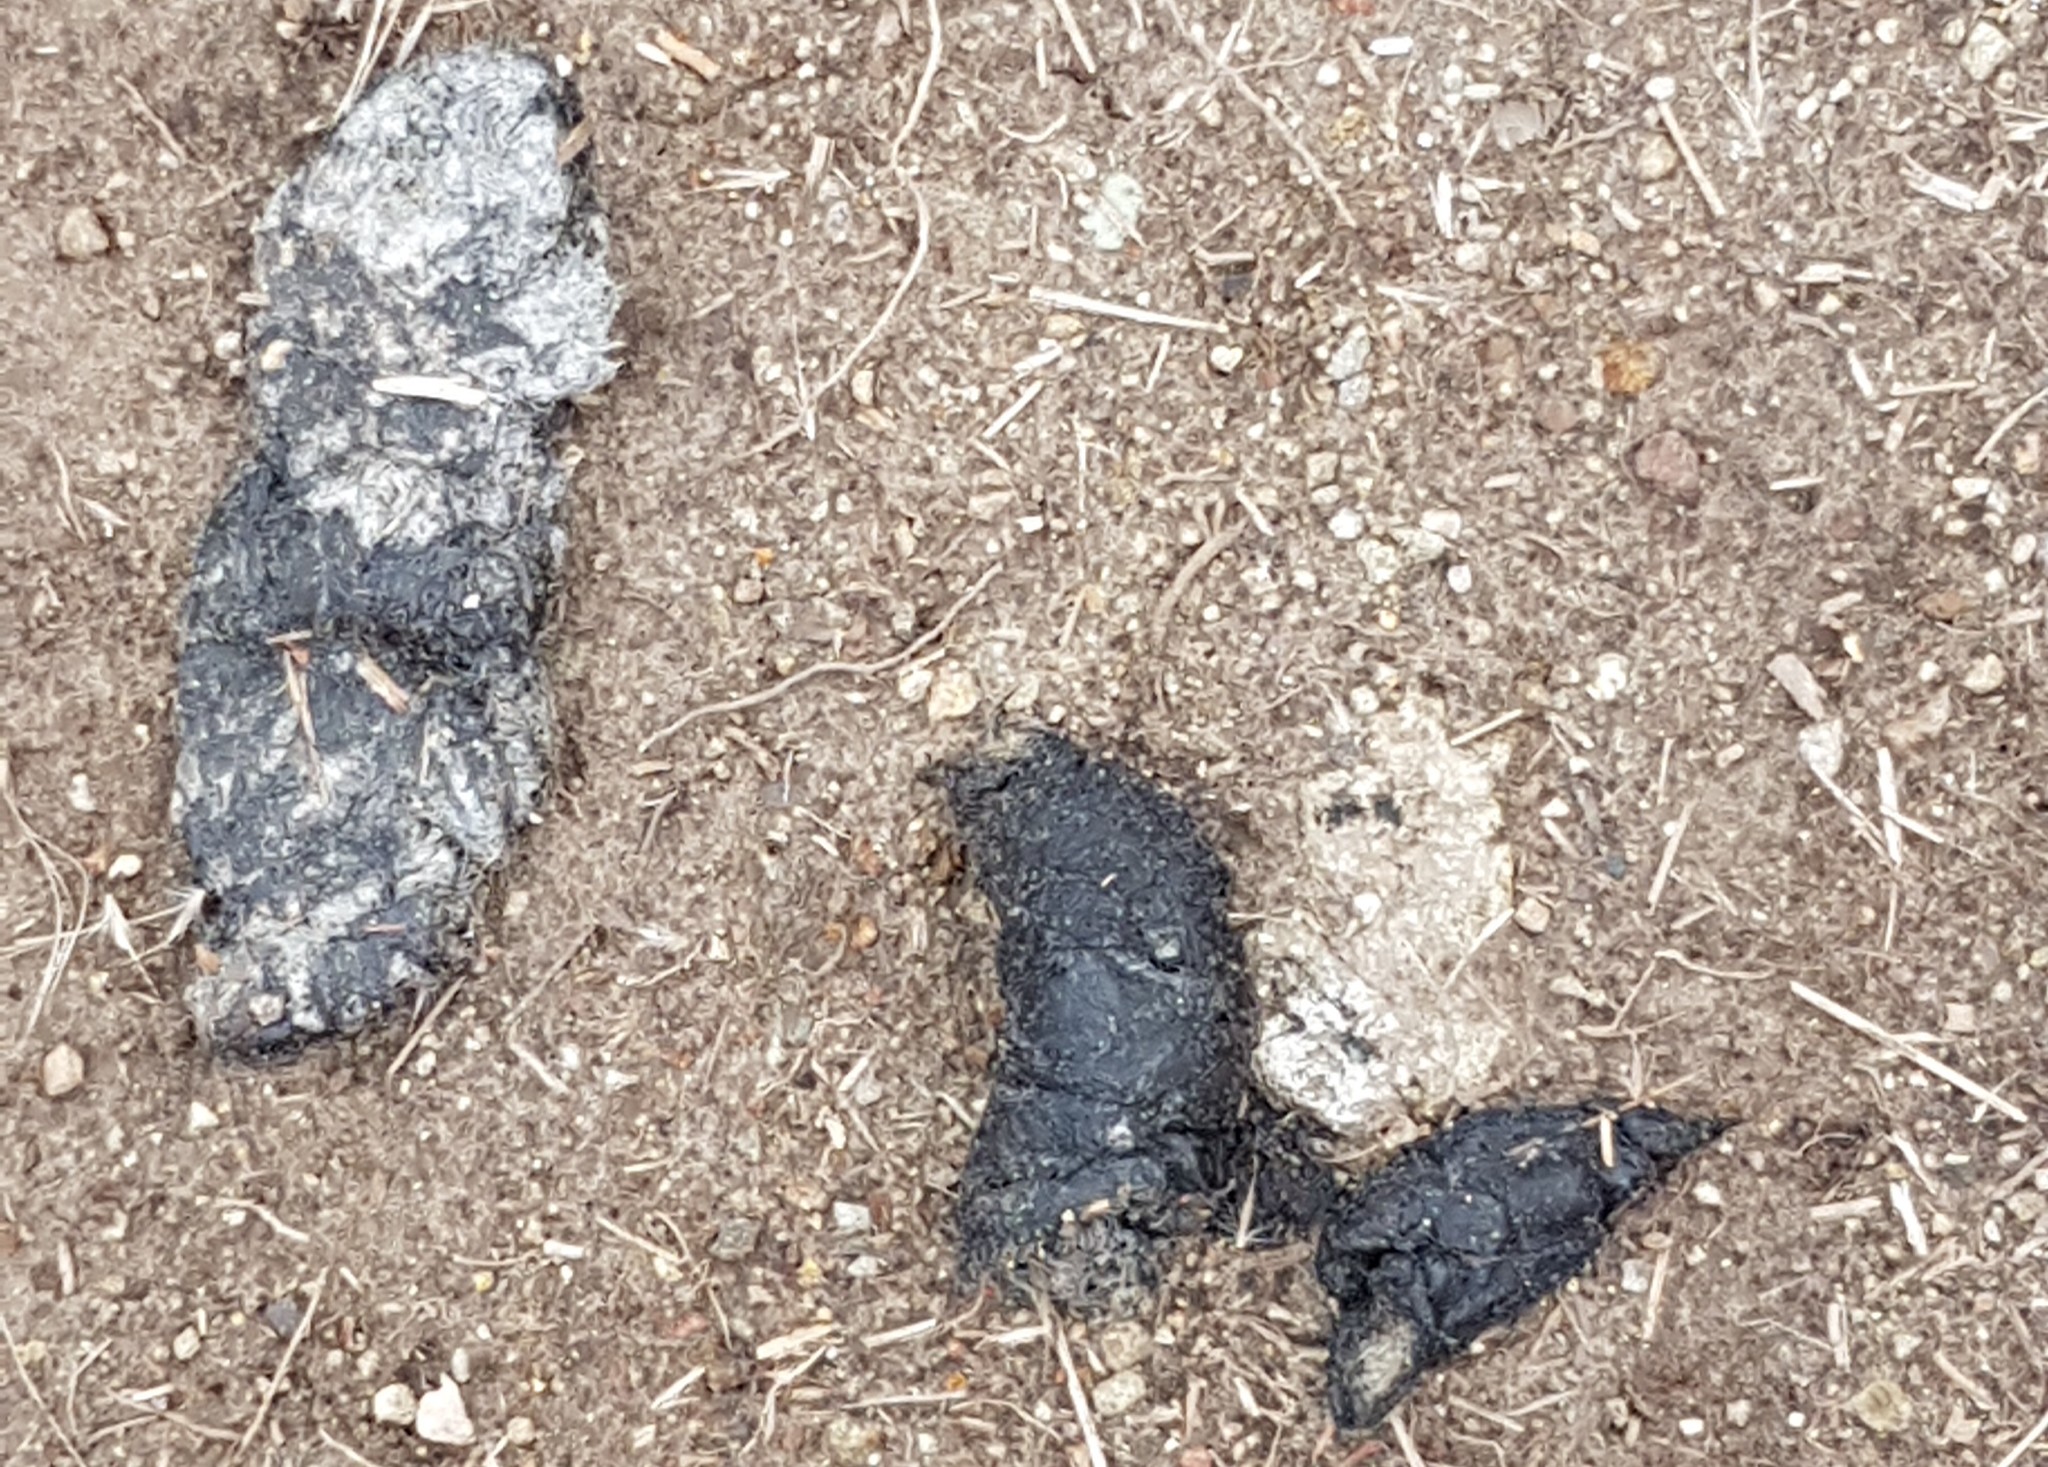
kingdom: Animalia
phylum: Chordata
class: Mammalia
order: Carnivora
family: Canidae
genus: Lycalopex
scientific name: Lycalopex culpaeus
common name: Culpeo
